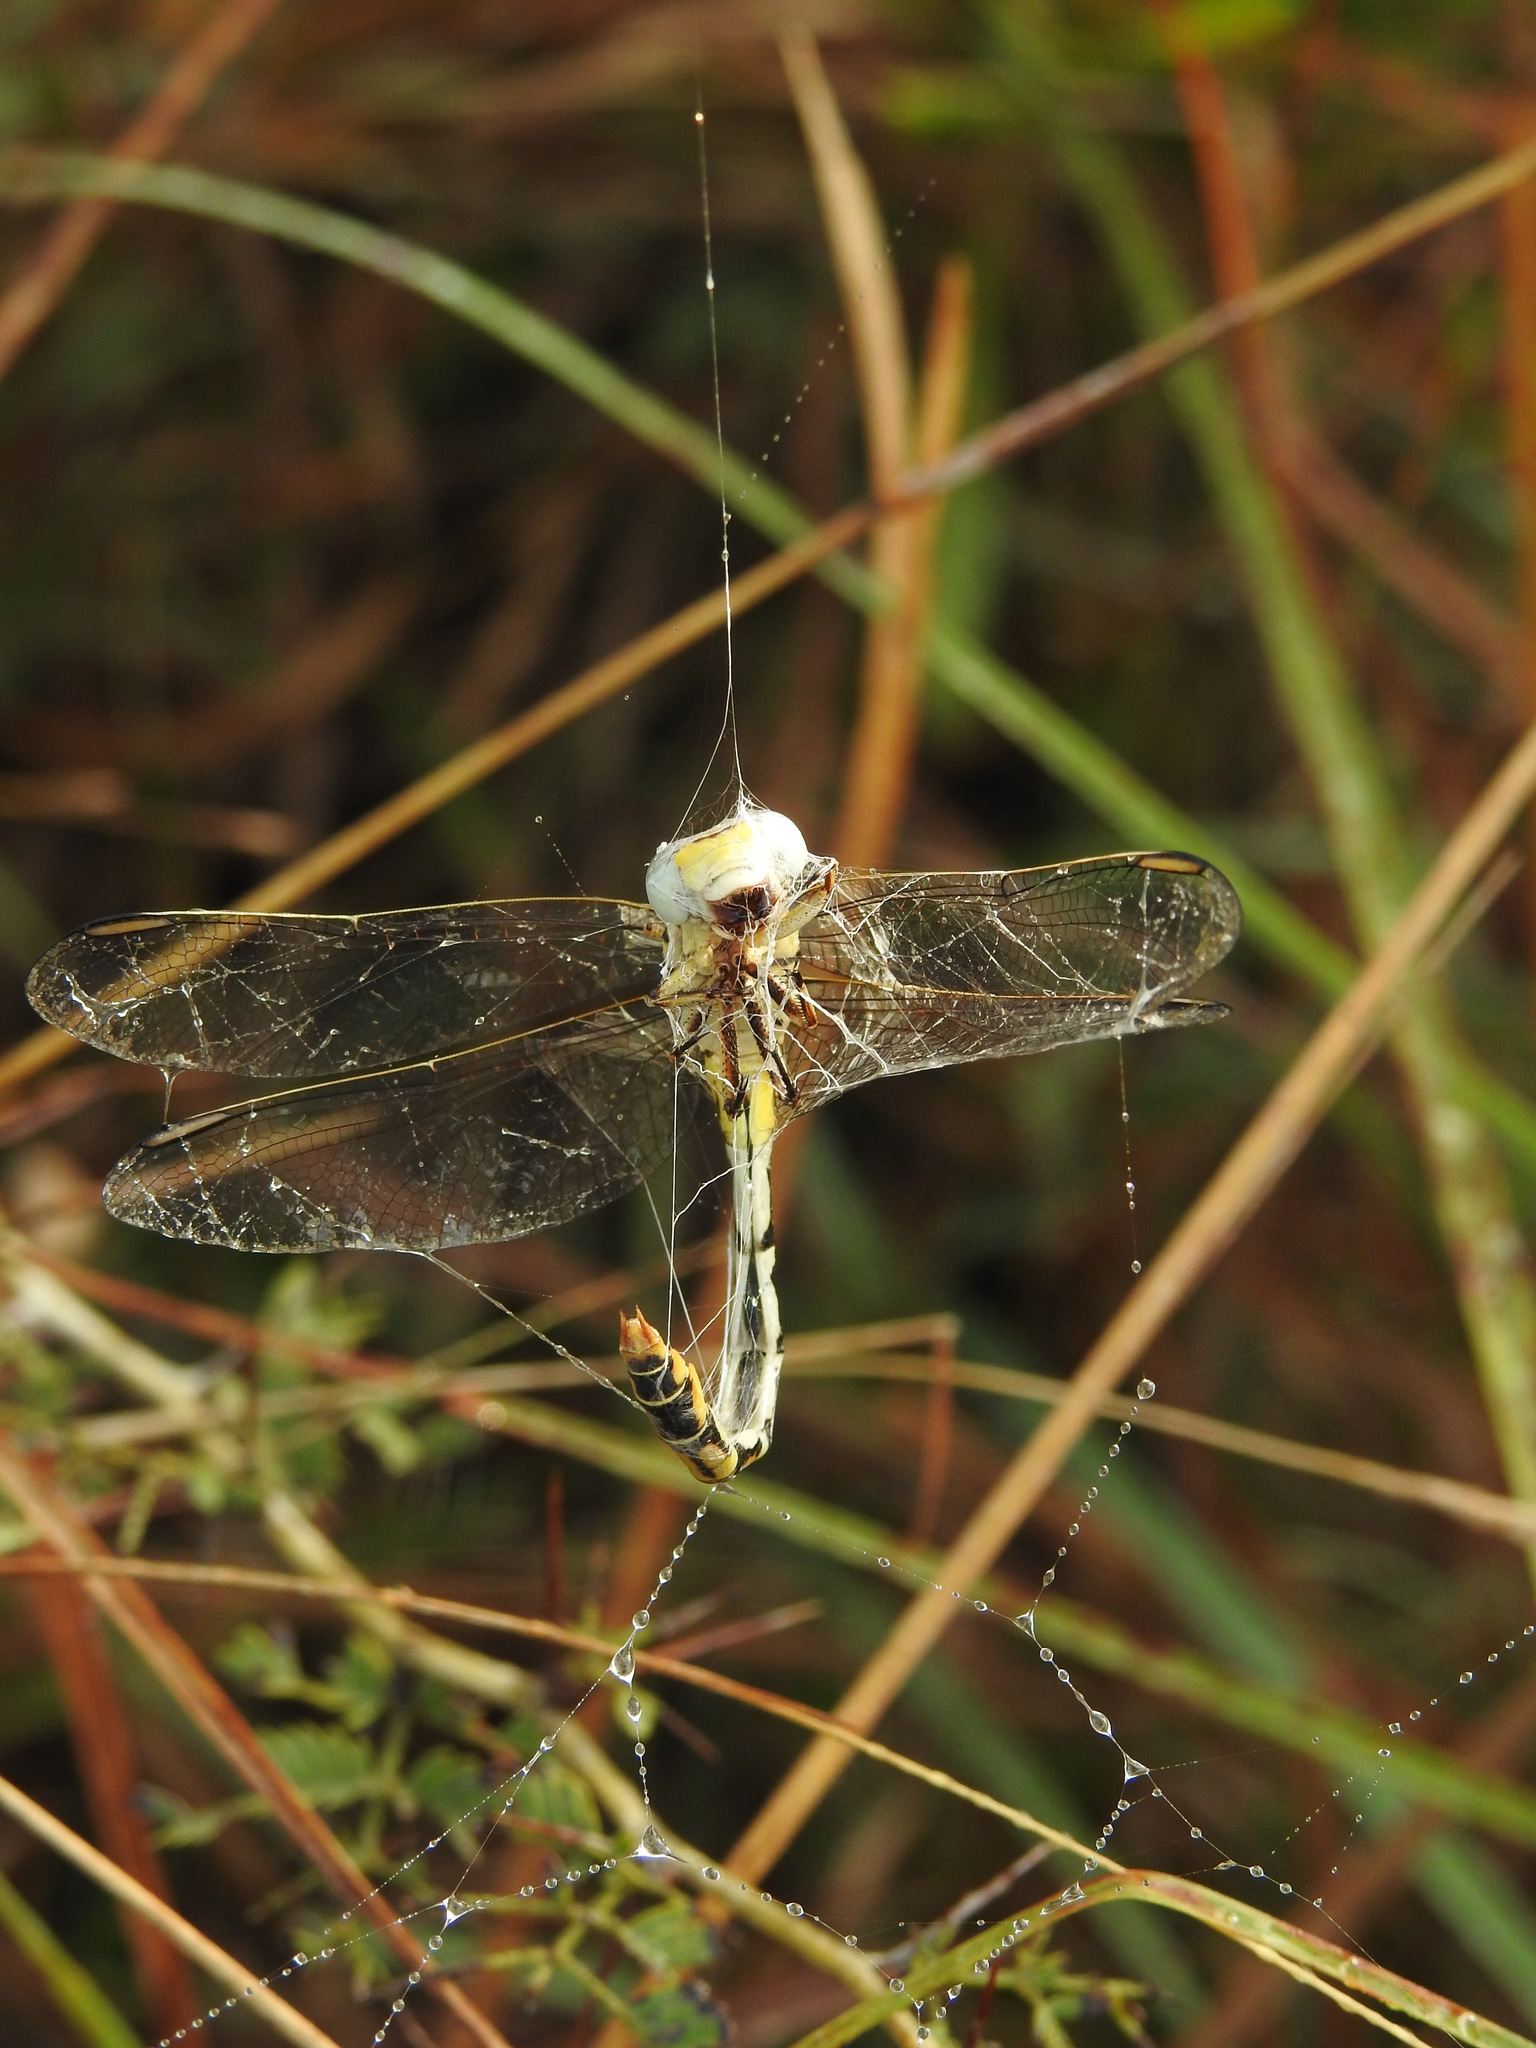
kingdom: Animalia
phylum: Arthropoda
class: Insecta
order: Odonata
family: Gomphidae
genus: Paragomphus
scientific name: Paragomphus lineatus
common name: Lined hooktail
